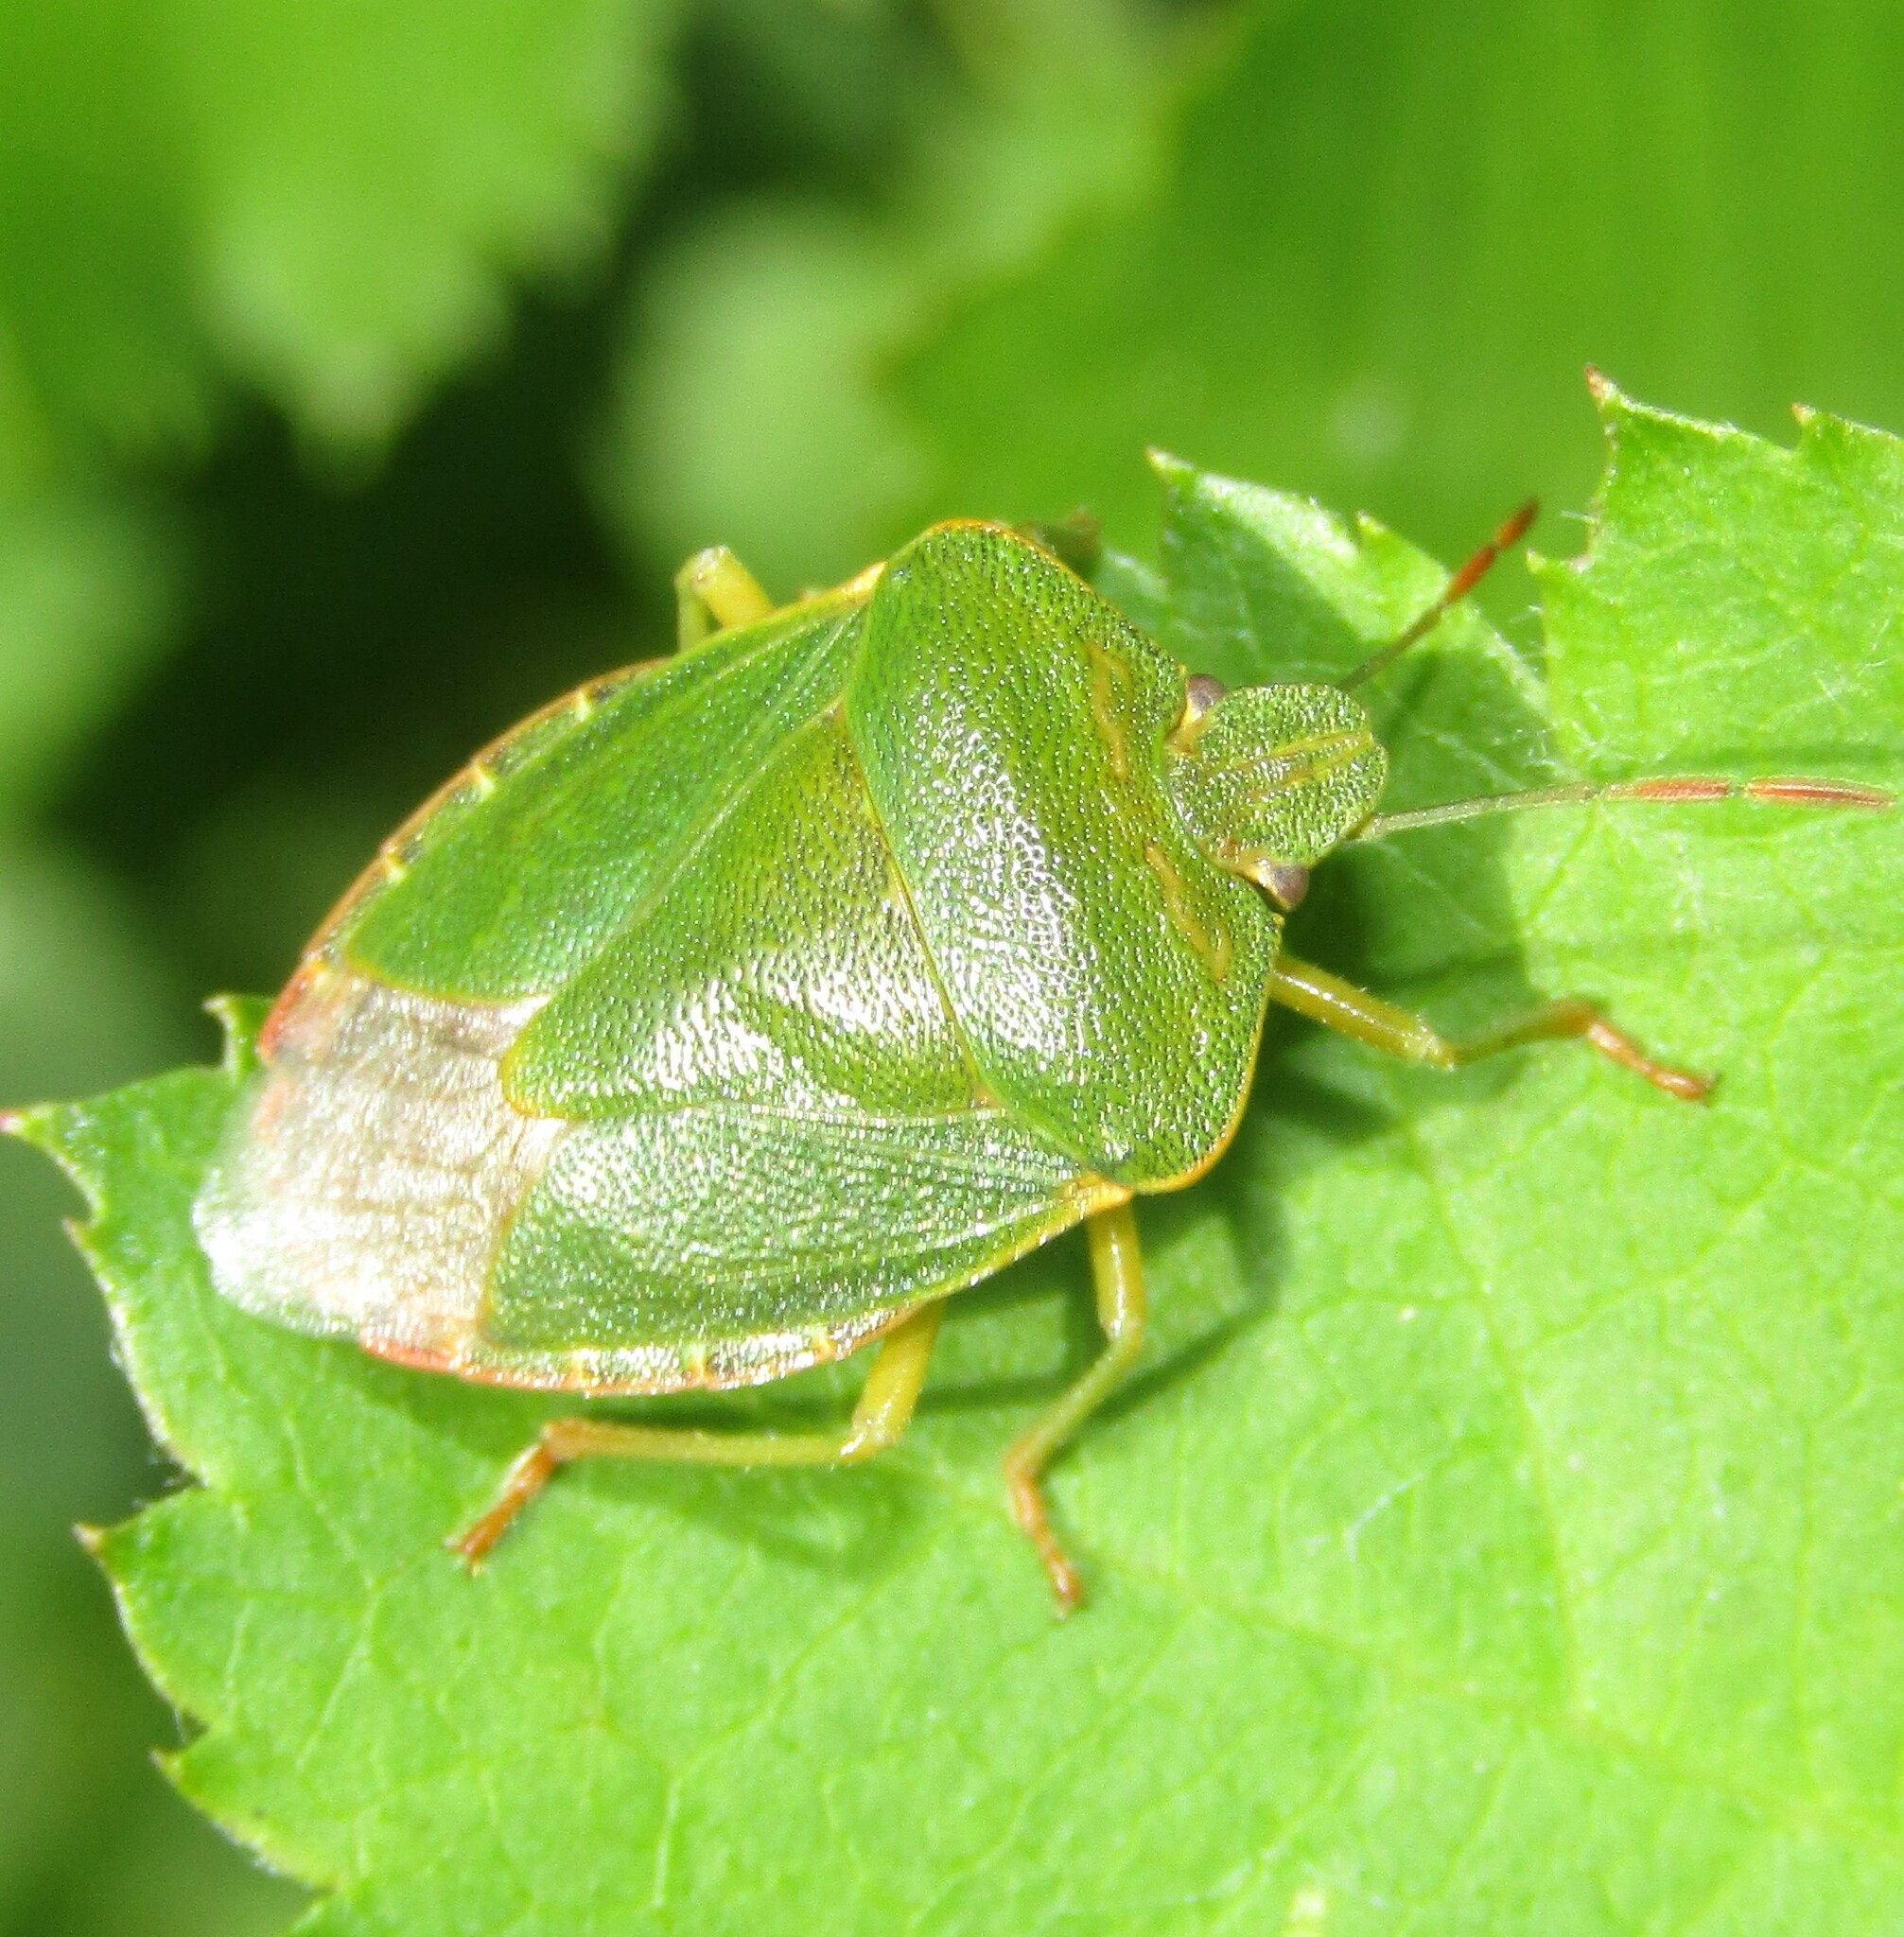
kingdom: Animalia
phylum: Arthropoda
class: Insecta
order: Hemiptera
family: Pentatomidae
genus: Palomena
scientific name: Palomena prasina
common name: Green shieldbug
